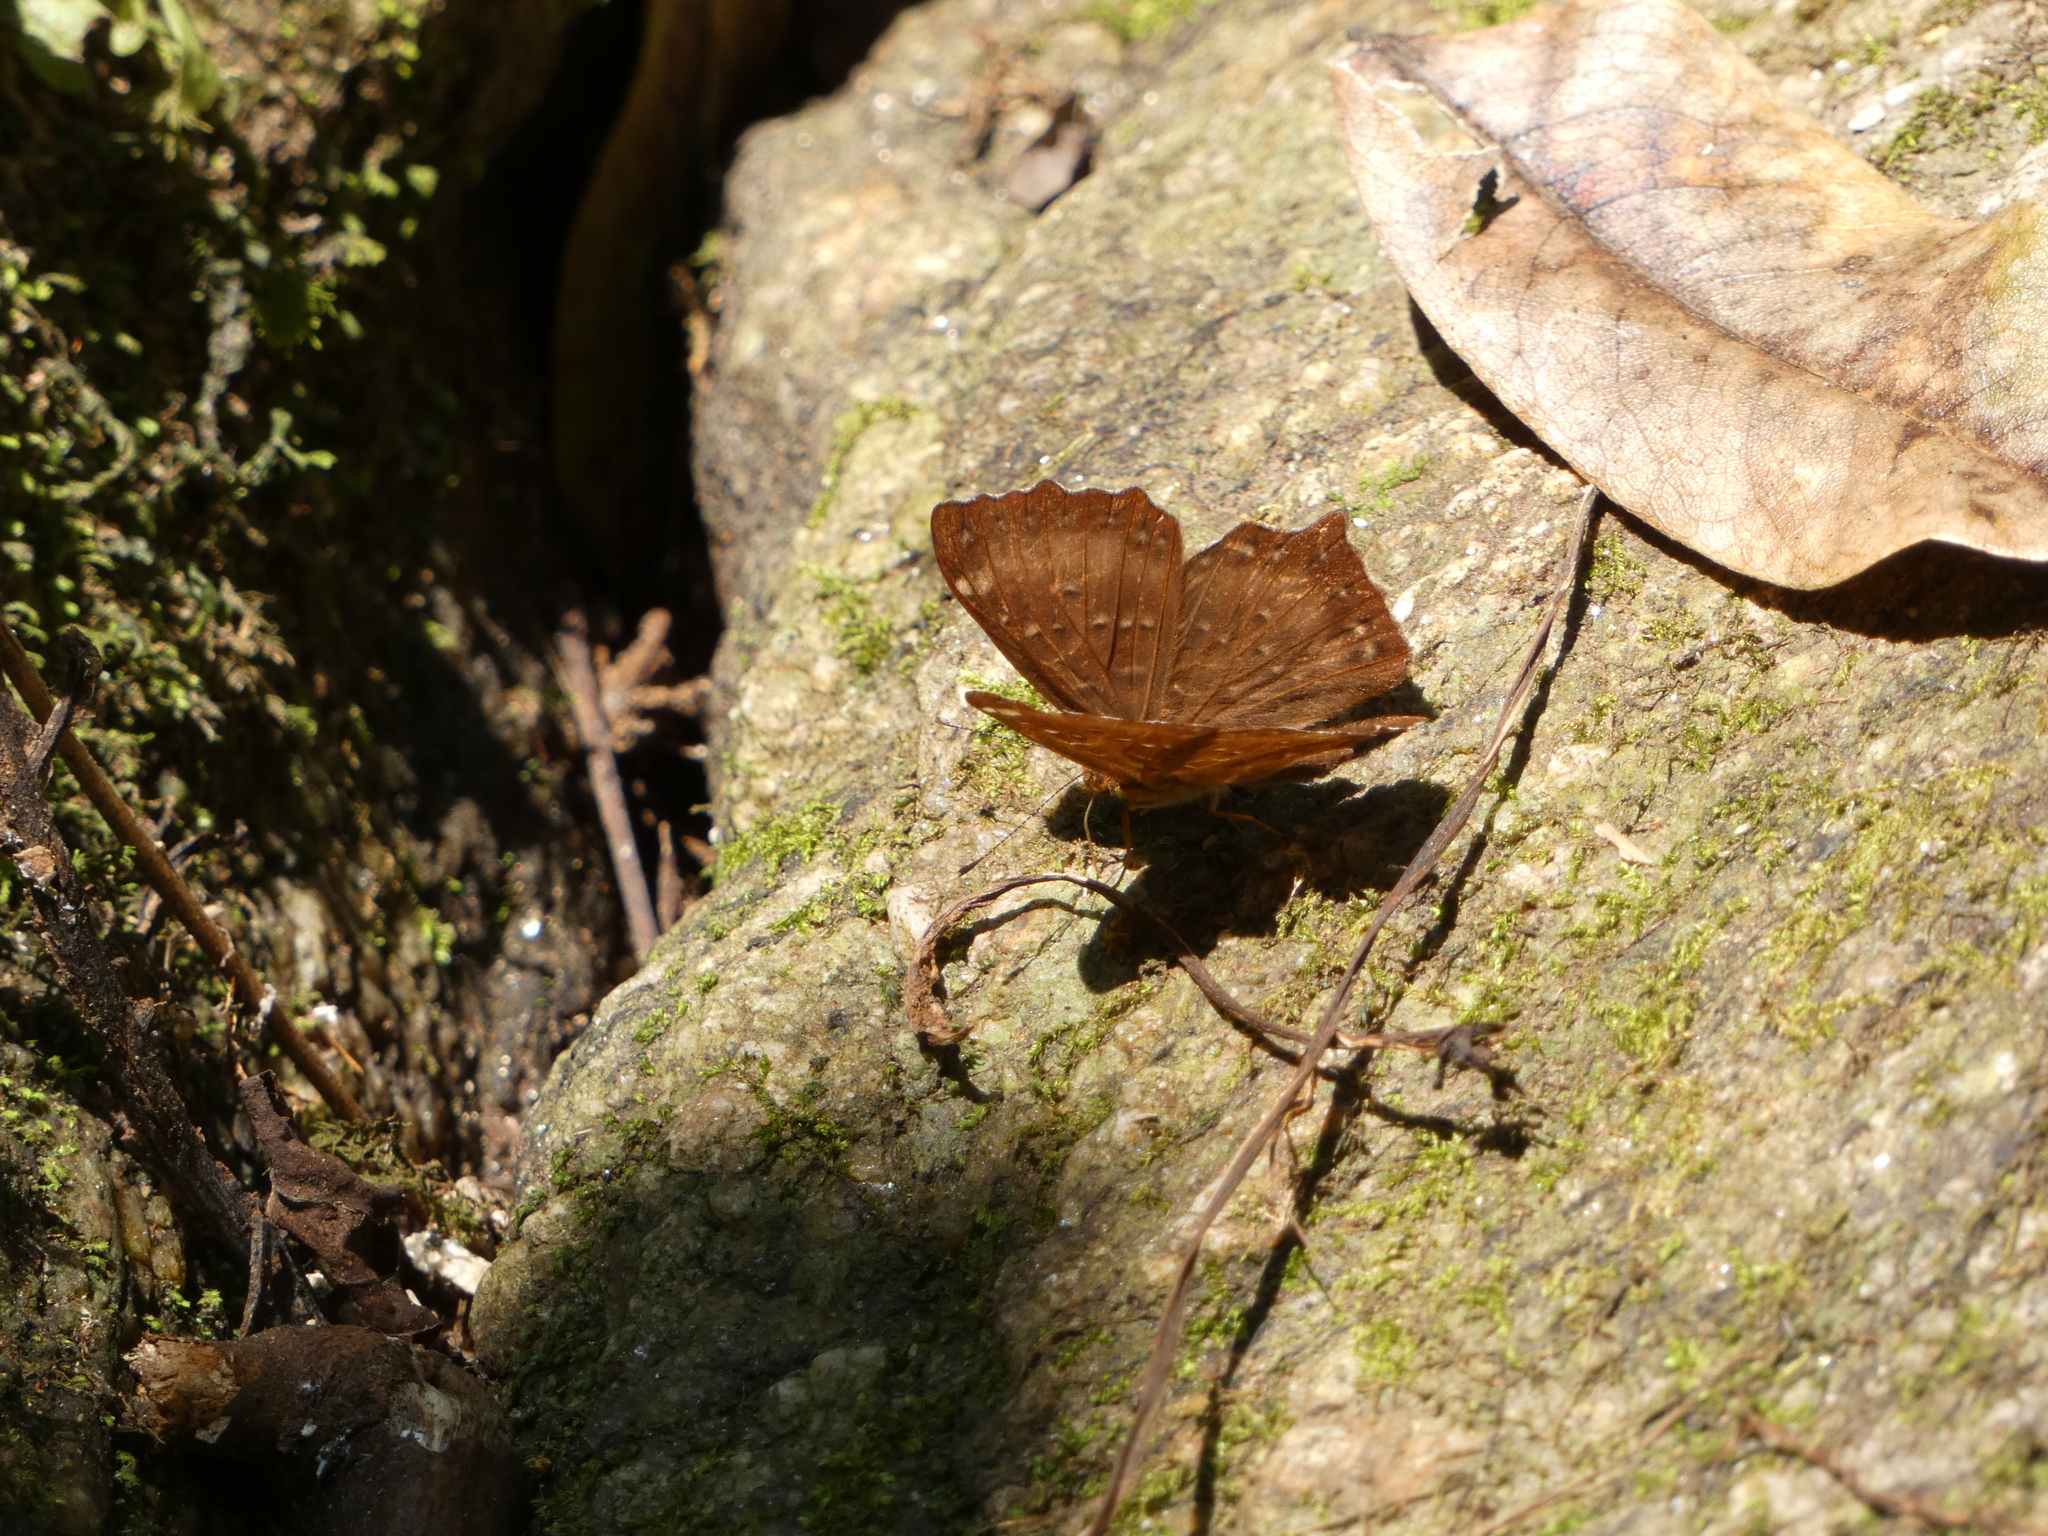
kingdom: Animalia
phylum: Arthropoda
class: Insecta
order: Lepidoptera
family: Riodinidae
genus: Zemeros
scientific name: Zemeros flegyas
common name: Punchinello
